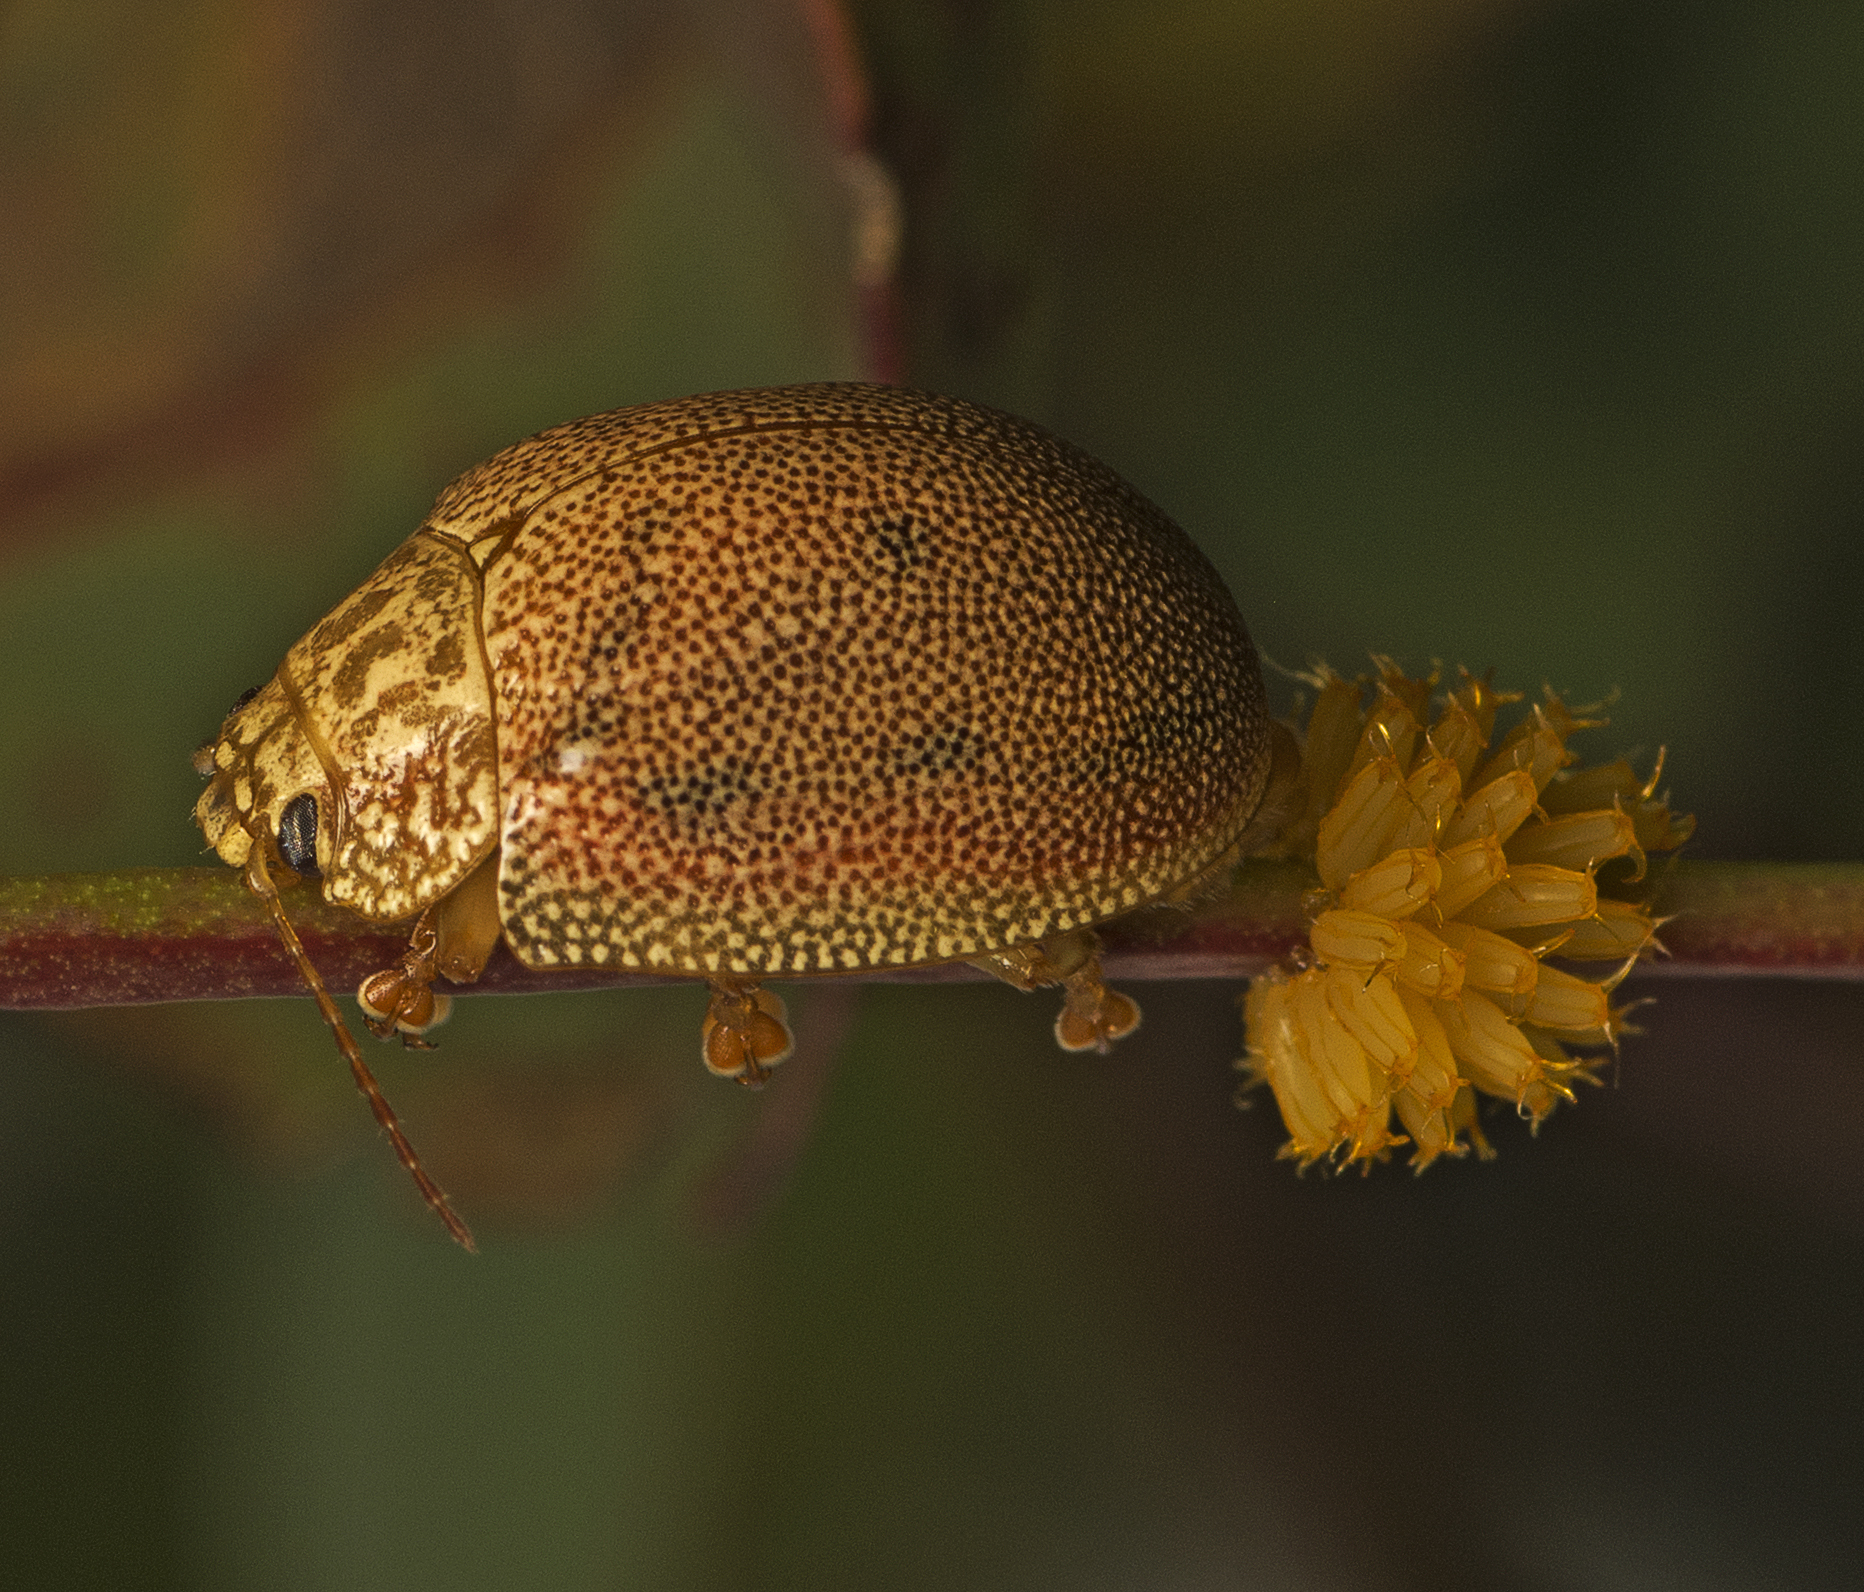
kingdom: Animalia
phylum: Arthropoda
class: Insecta
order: Coleoptera
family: Chrysomelidae
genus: Paropsis
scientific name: Paropsis
